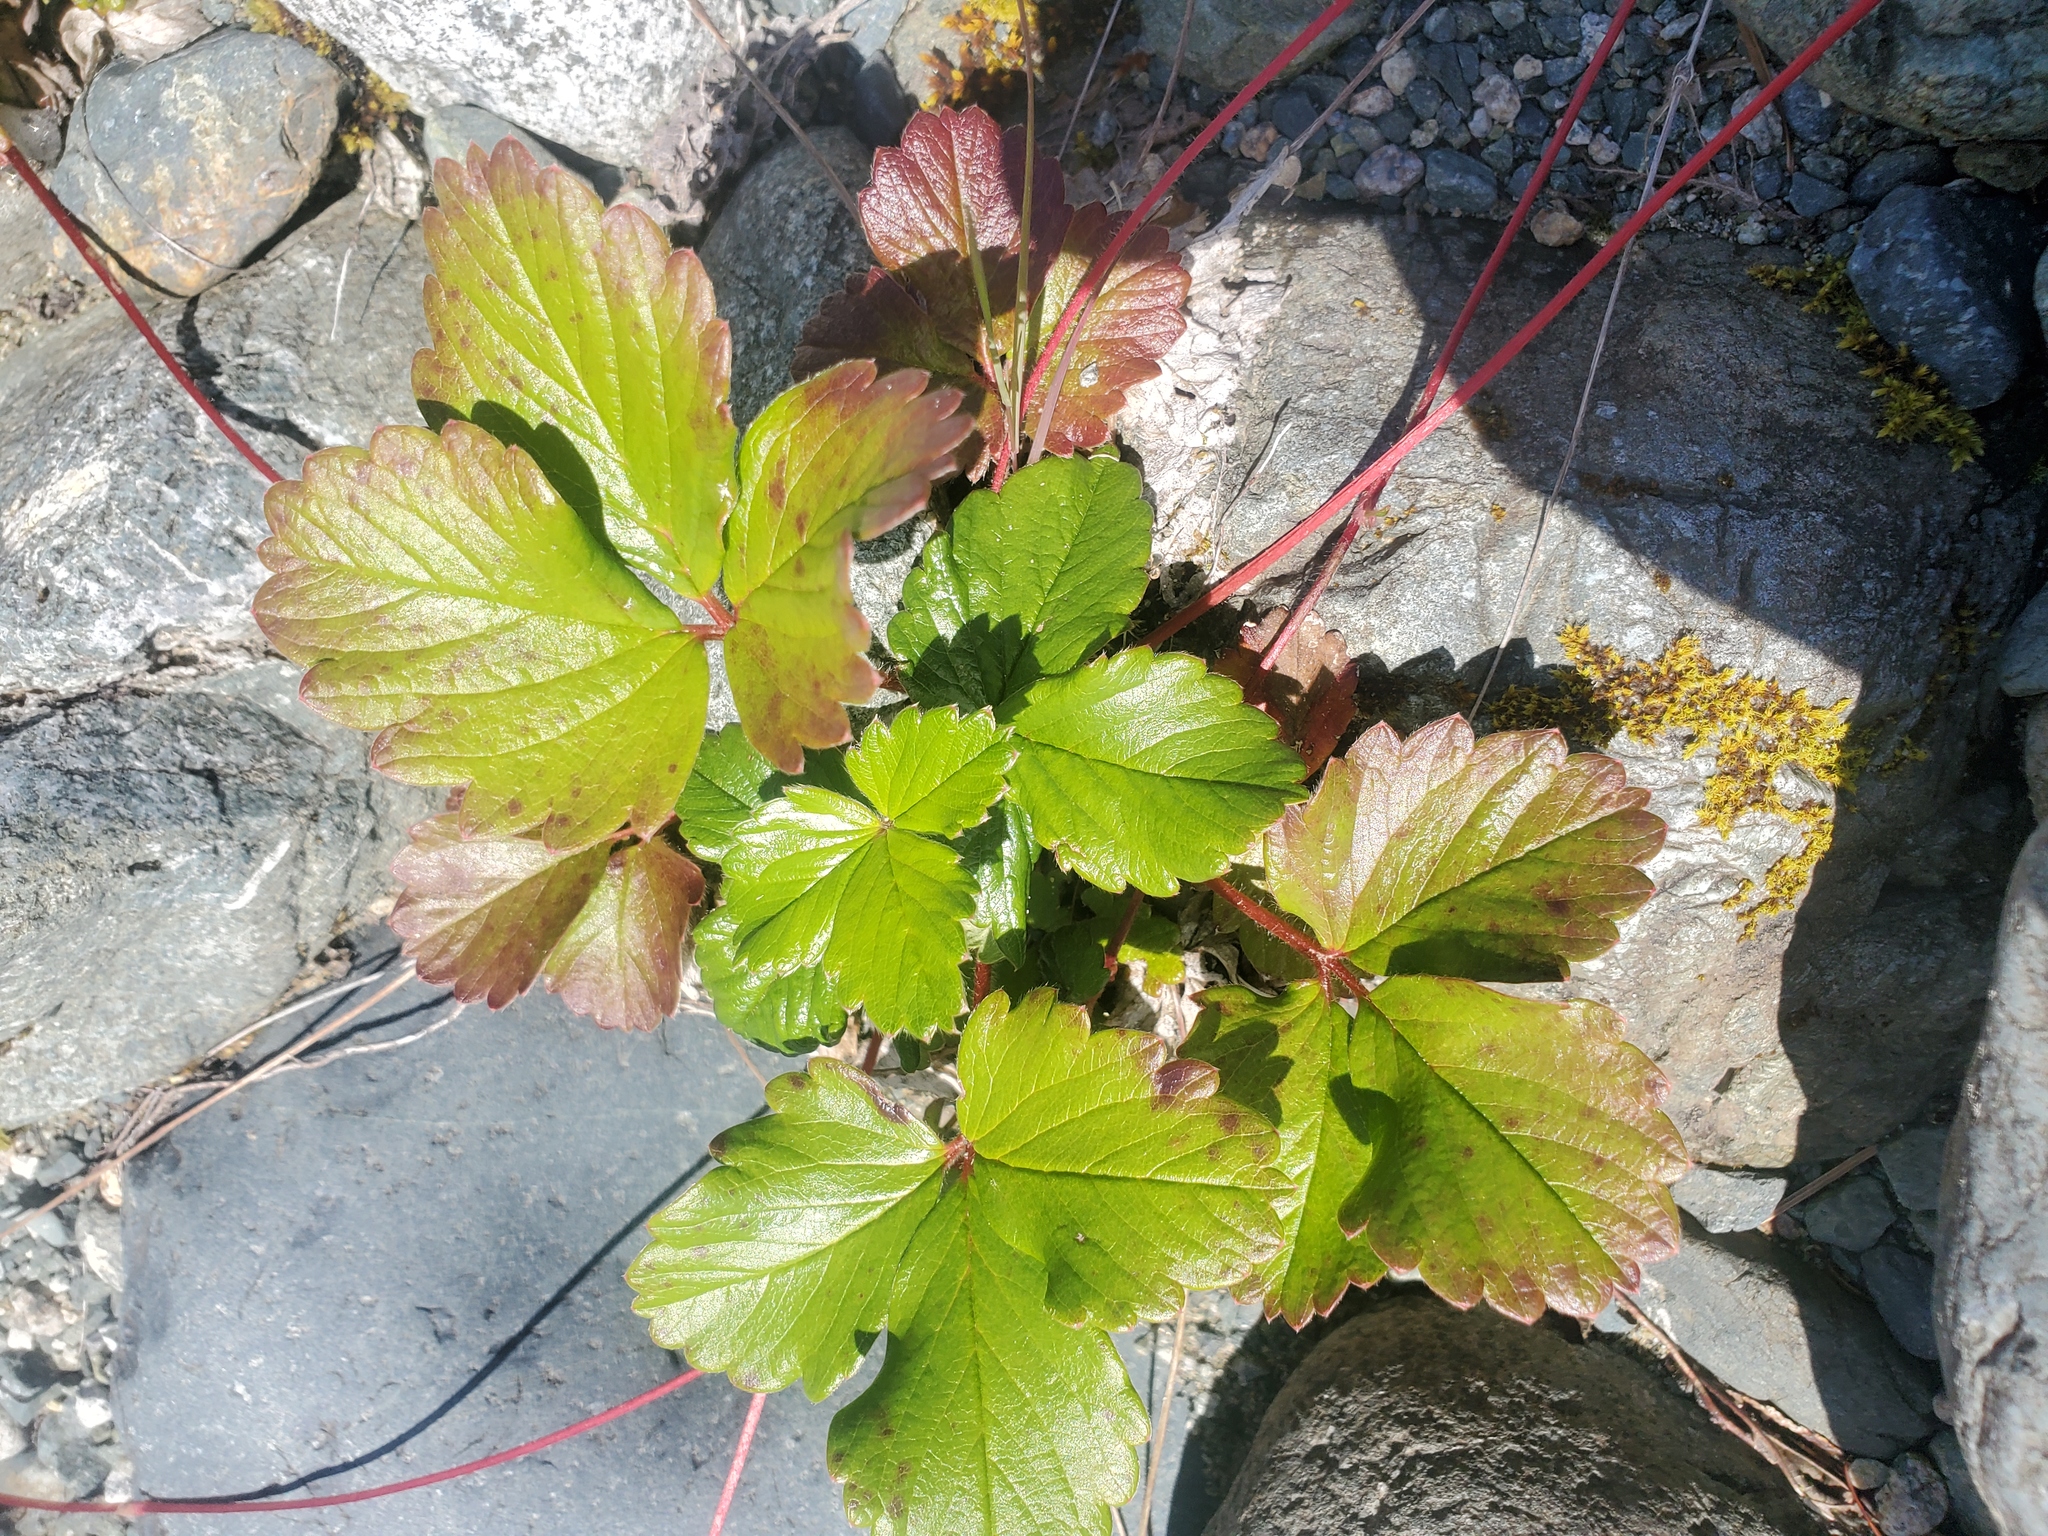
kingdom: Plantae
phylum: Tracheophyta
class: Magnoliopsida
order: Rosales
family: Rosaceae
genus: Fragaria
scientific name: Fragaria chiloensis
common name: Beach strawberry
